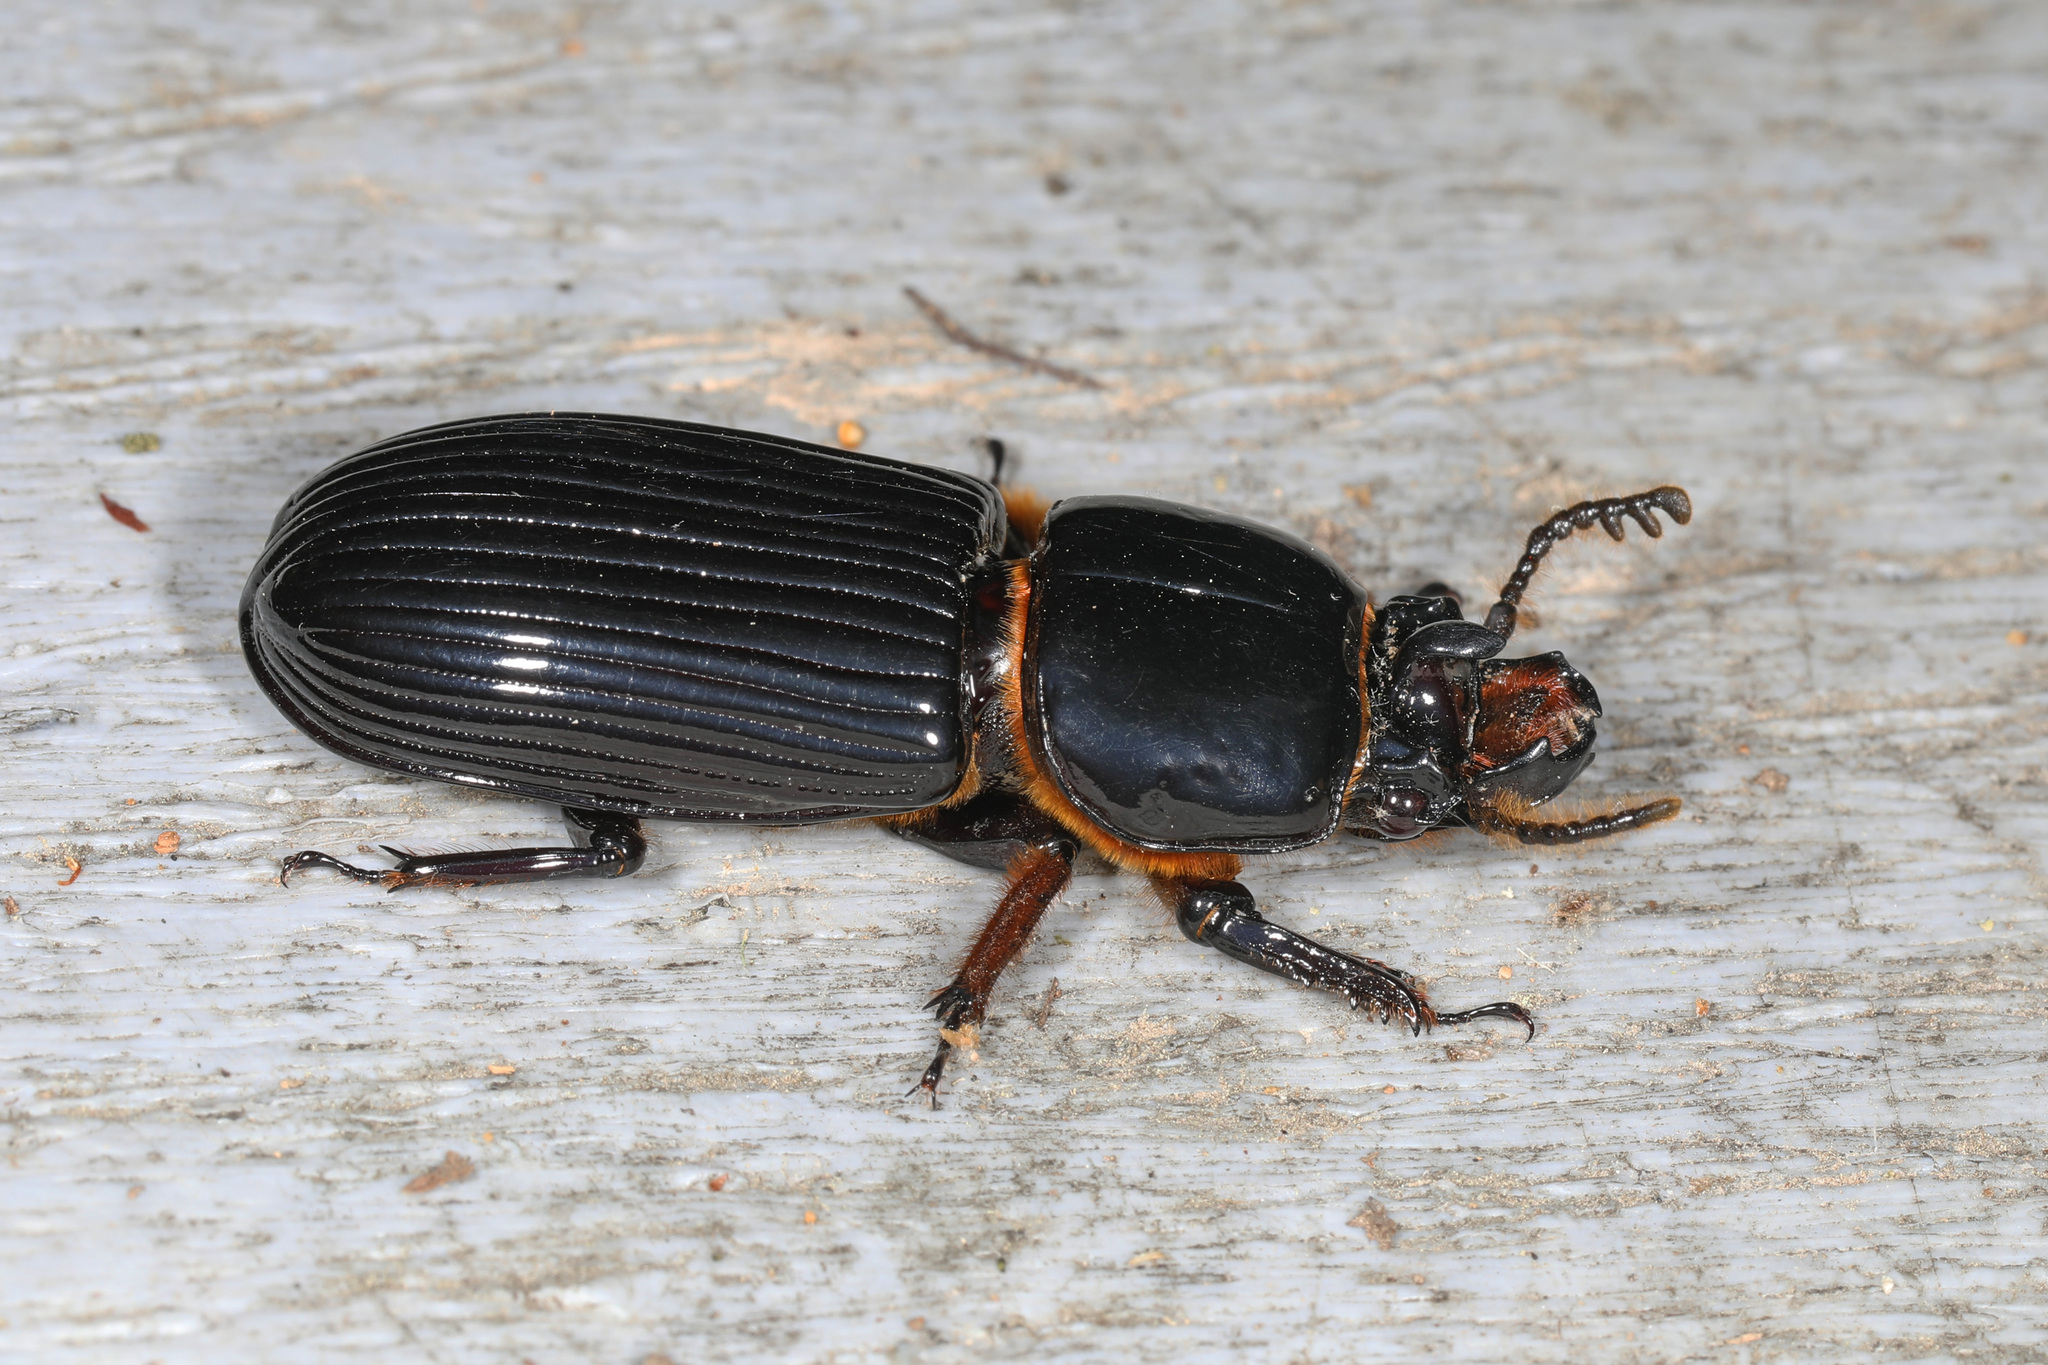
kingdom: Animalia
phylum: Arthropoda
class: Insecta
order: Coleoptera
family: Passalidae
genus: Odontotaenius
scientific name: Odontotaenius disjunctus
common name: Patent leather beetle
